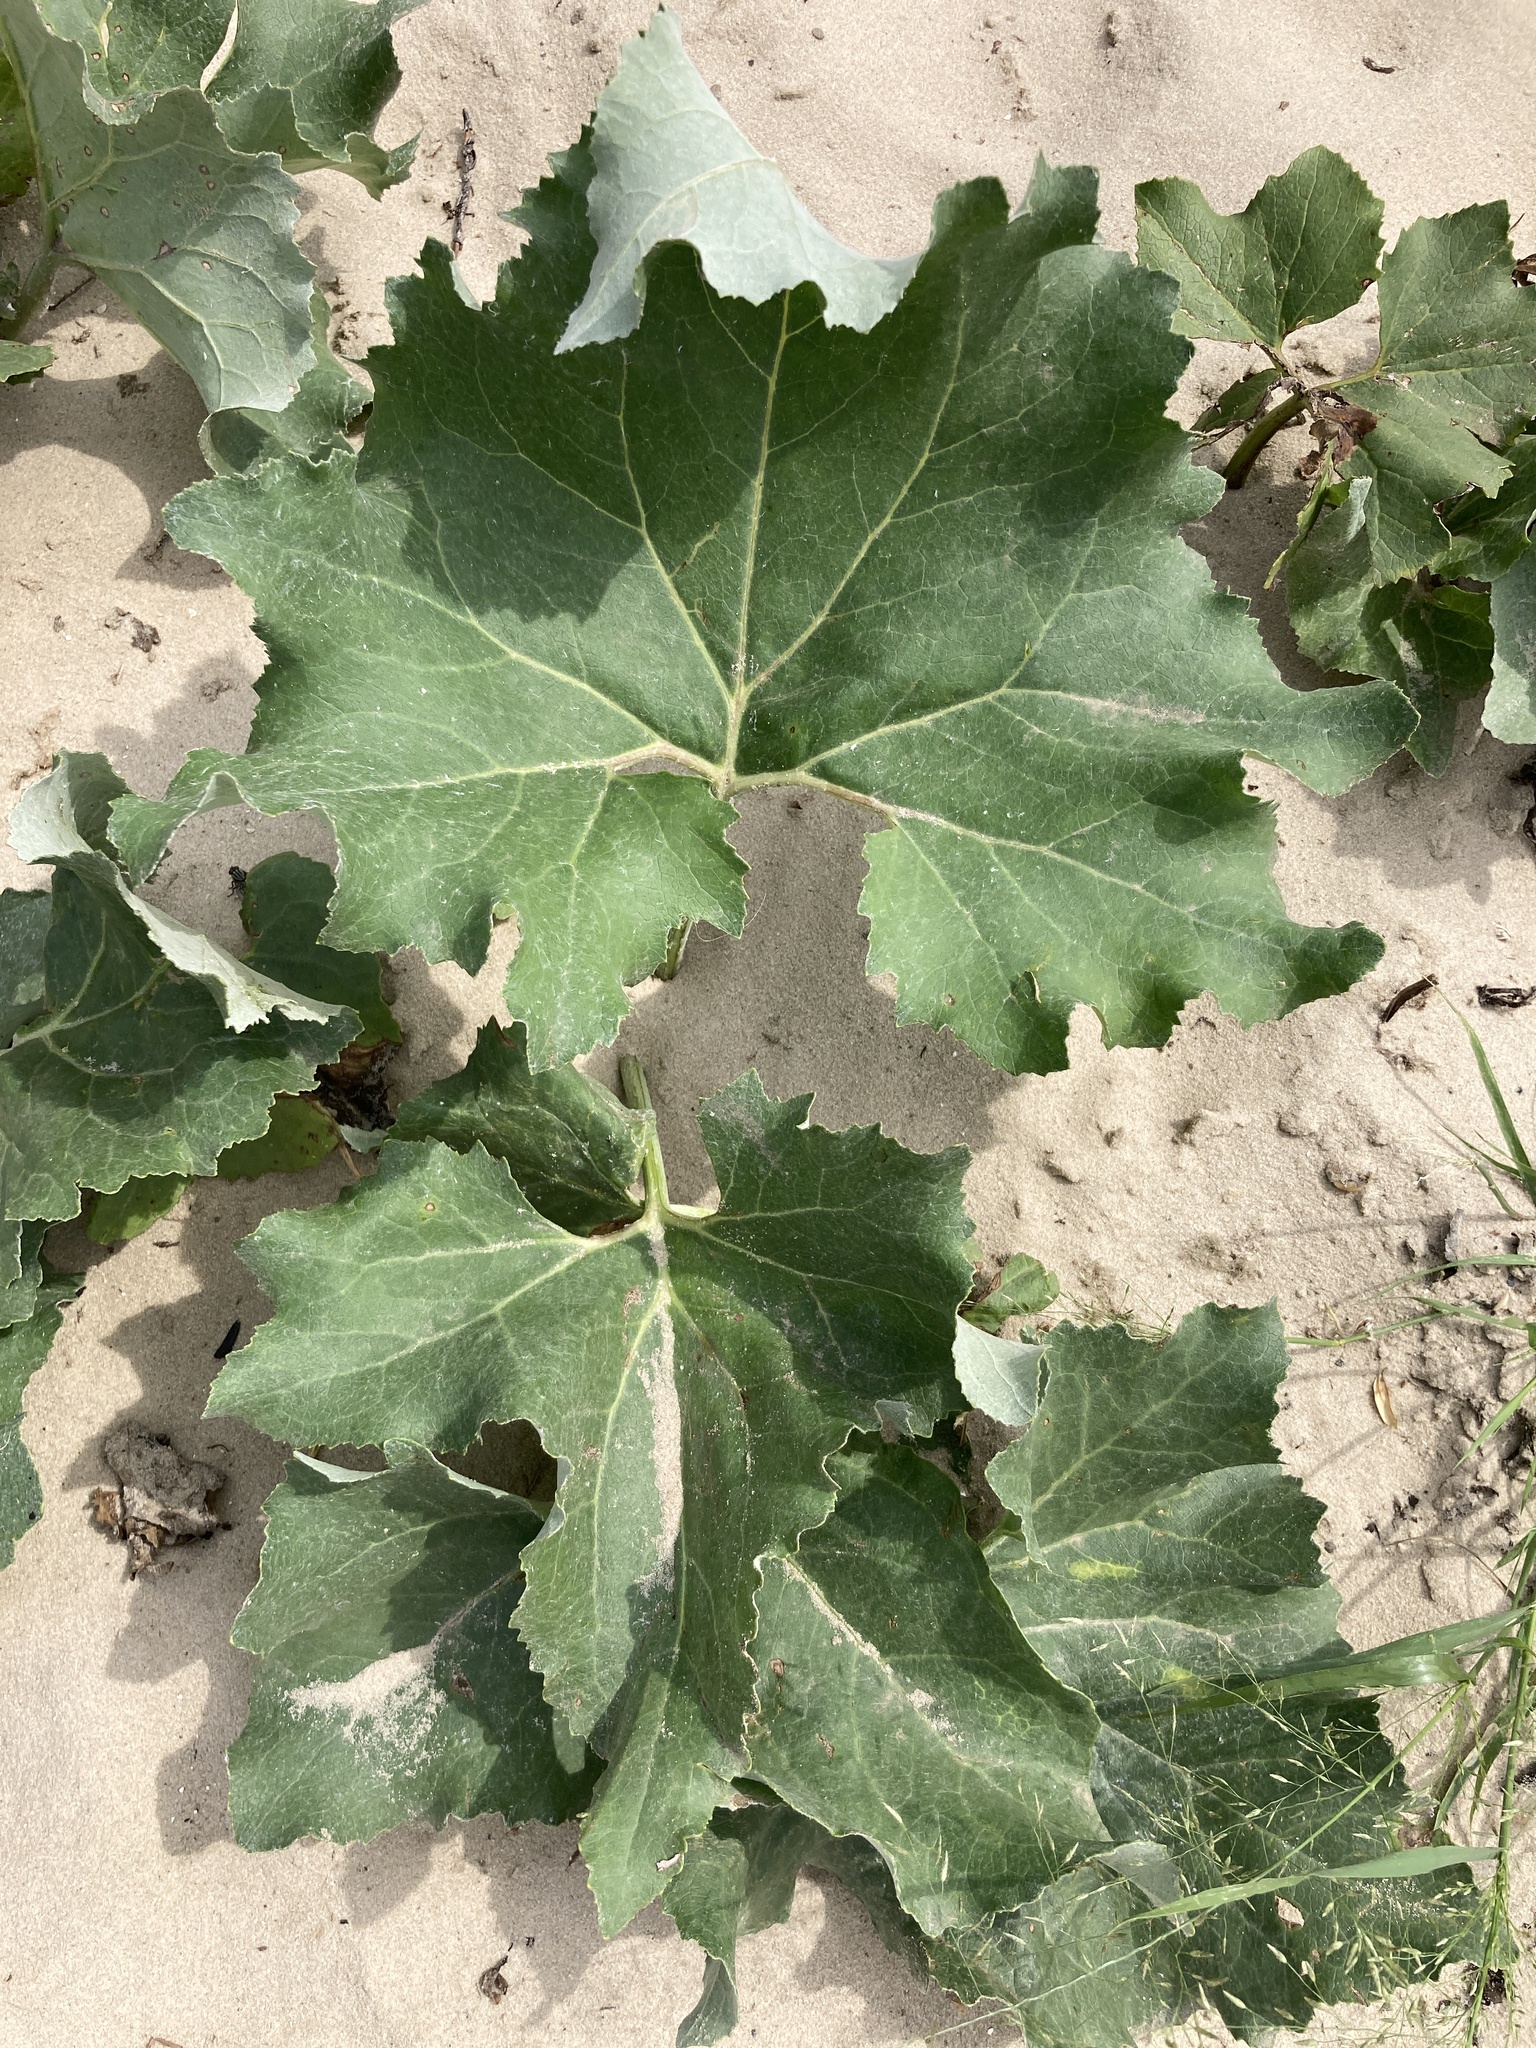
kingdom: Plantae
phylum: Tracheophyta
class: Magnoliopsida
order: Asterales
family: Asteraceae
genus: Petasites
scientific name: Petasites spurius
